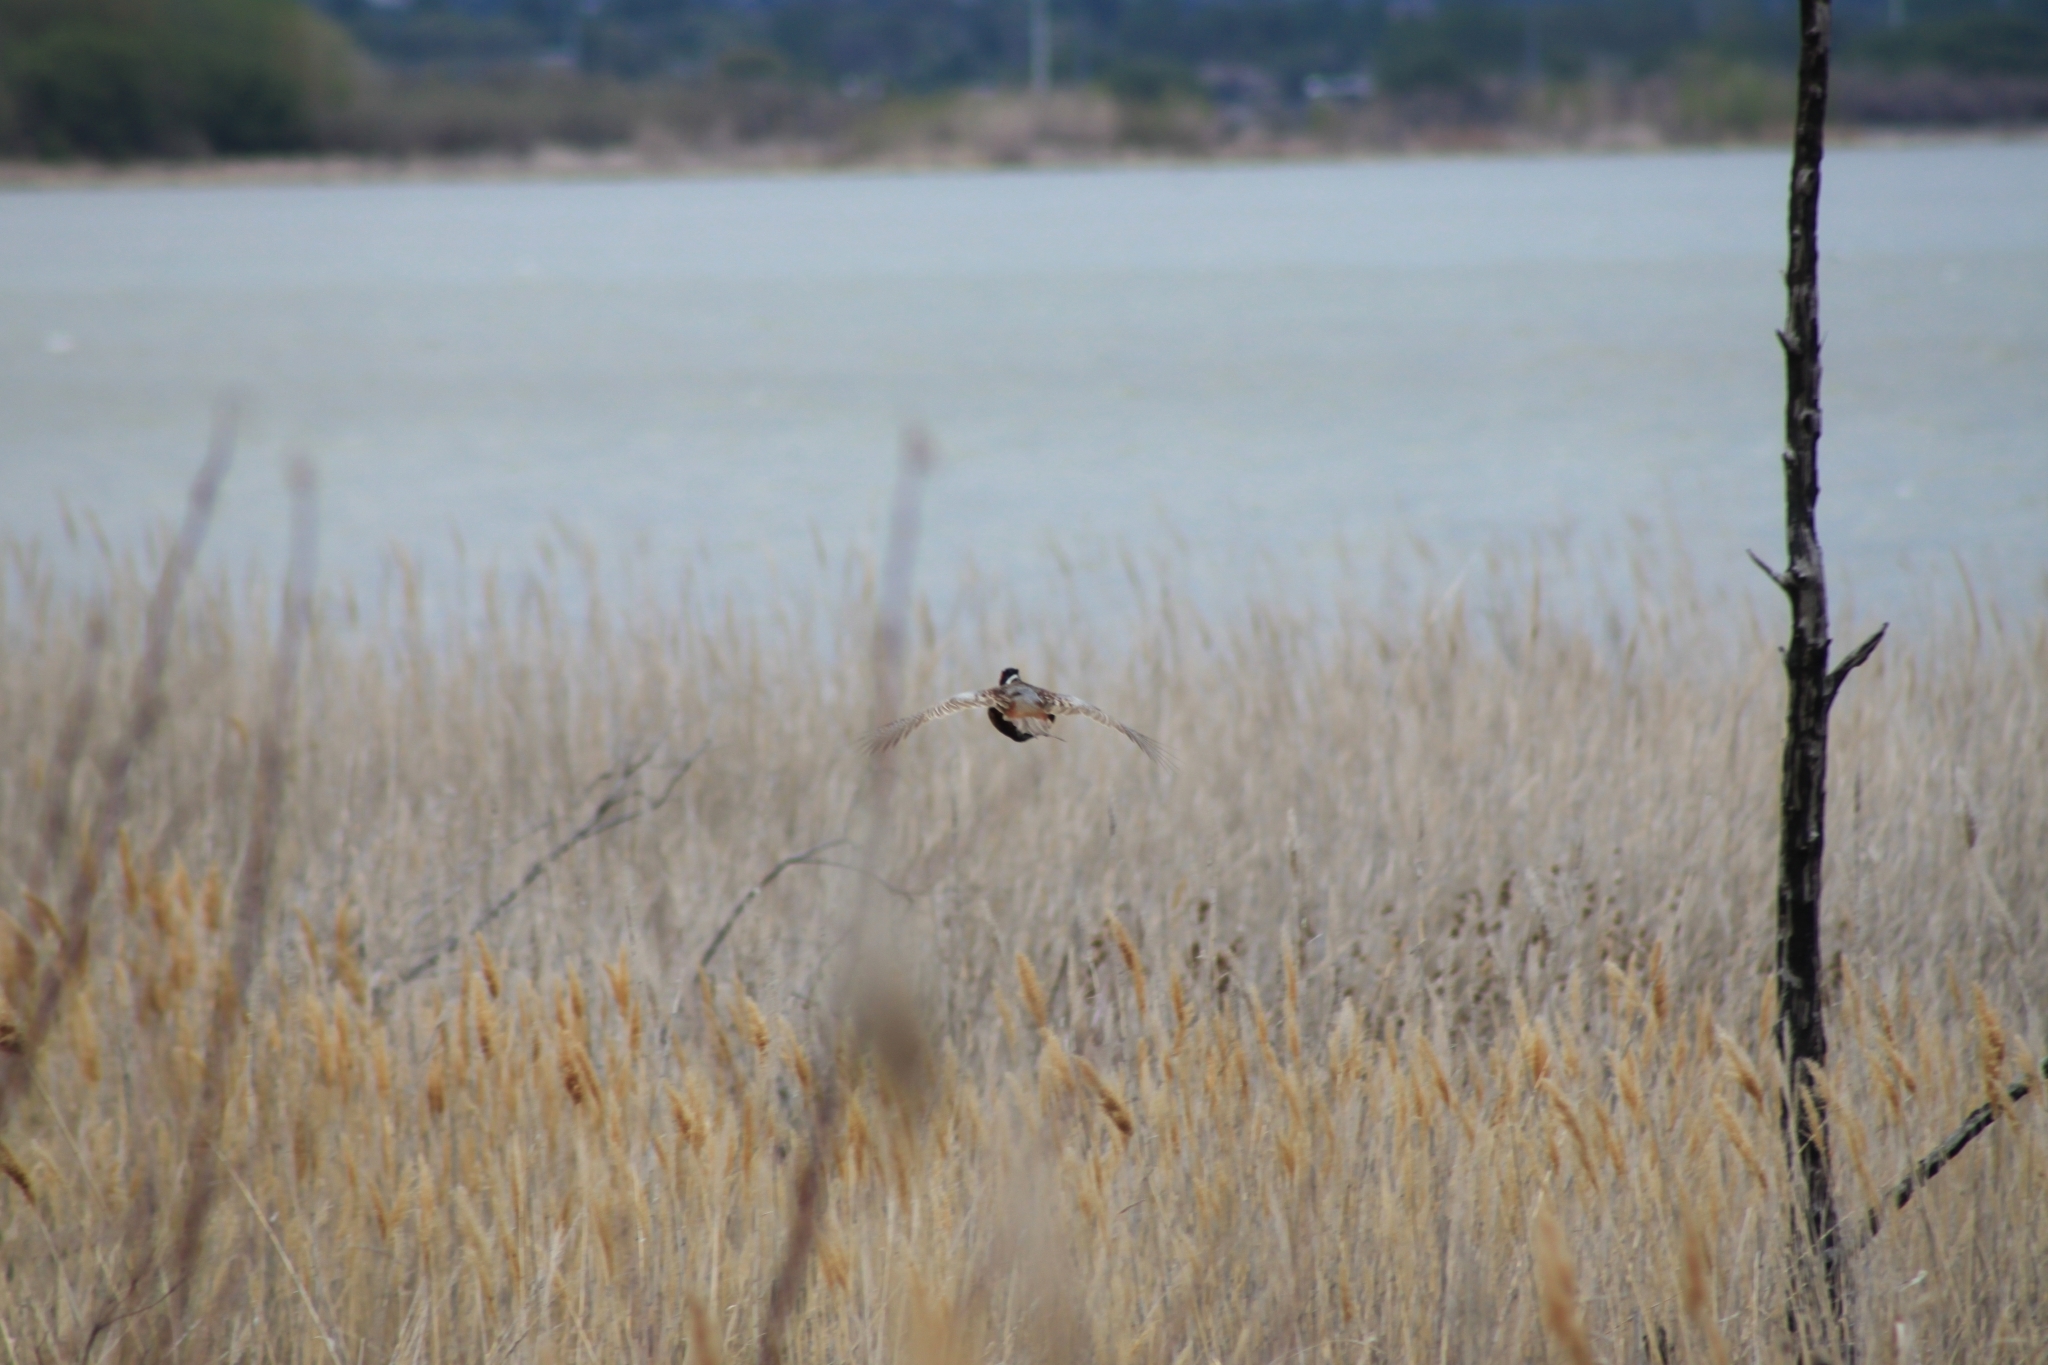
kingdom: Animalia
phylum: Chordata
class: Aves
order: Galliformes
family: Phasianidae
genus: Phasianus
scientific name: Phasianus colchicus
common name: Common pheasant
